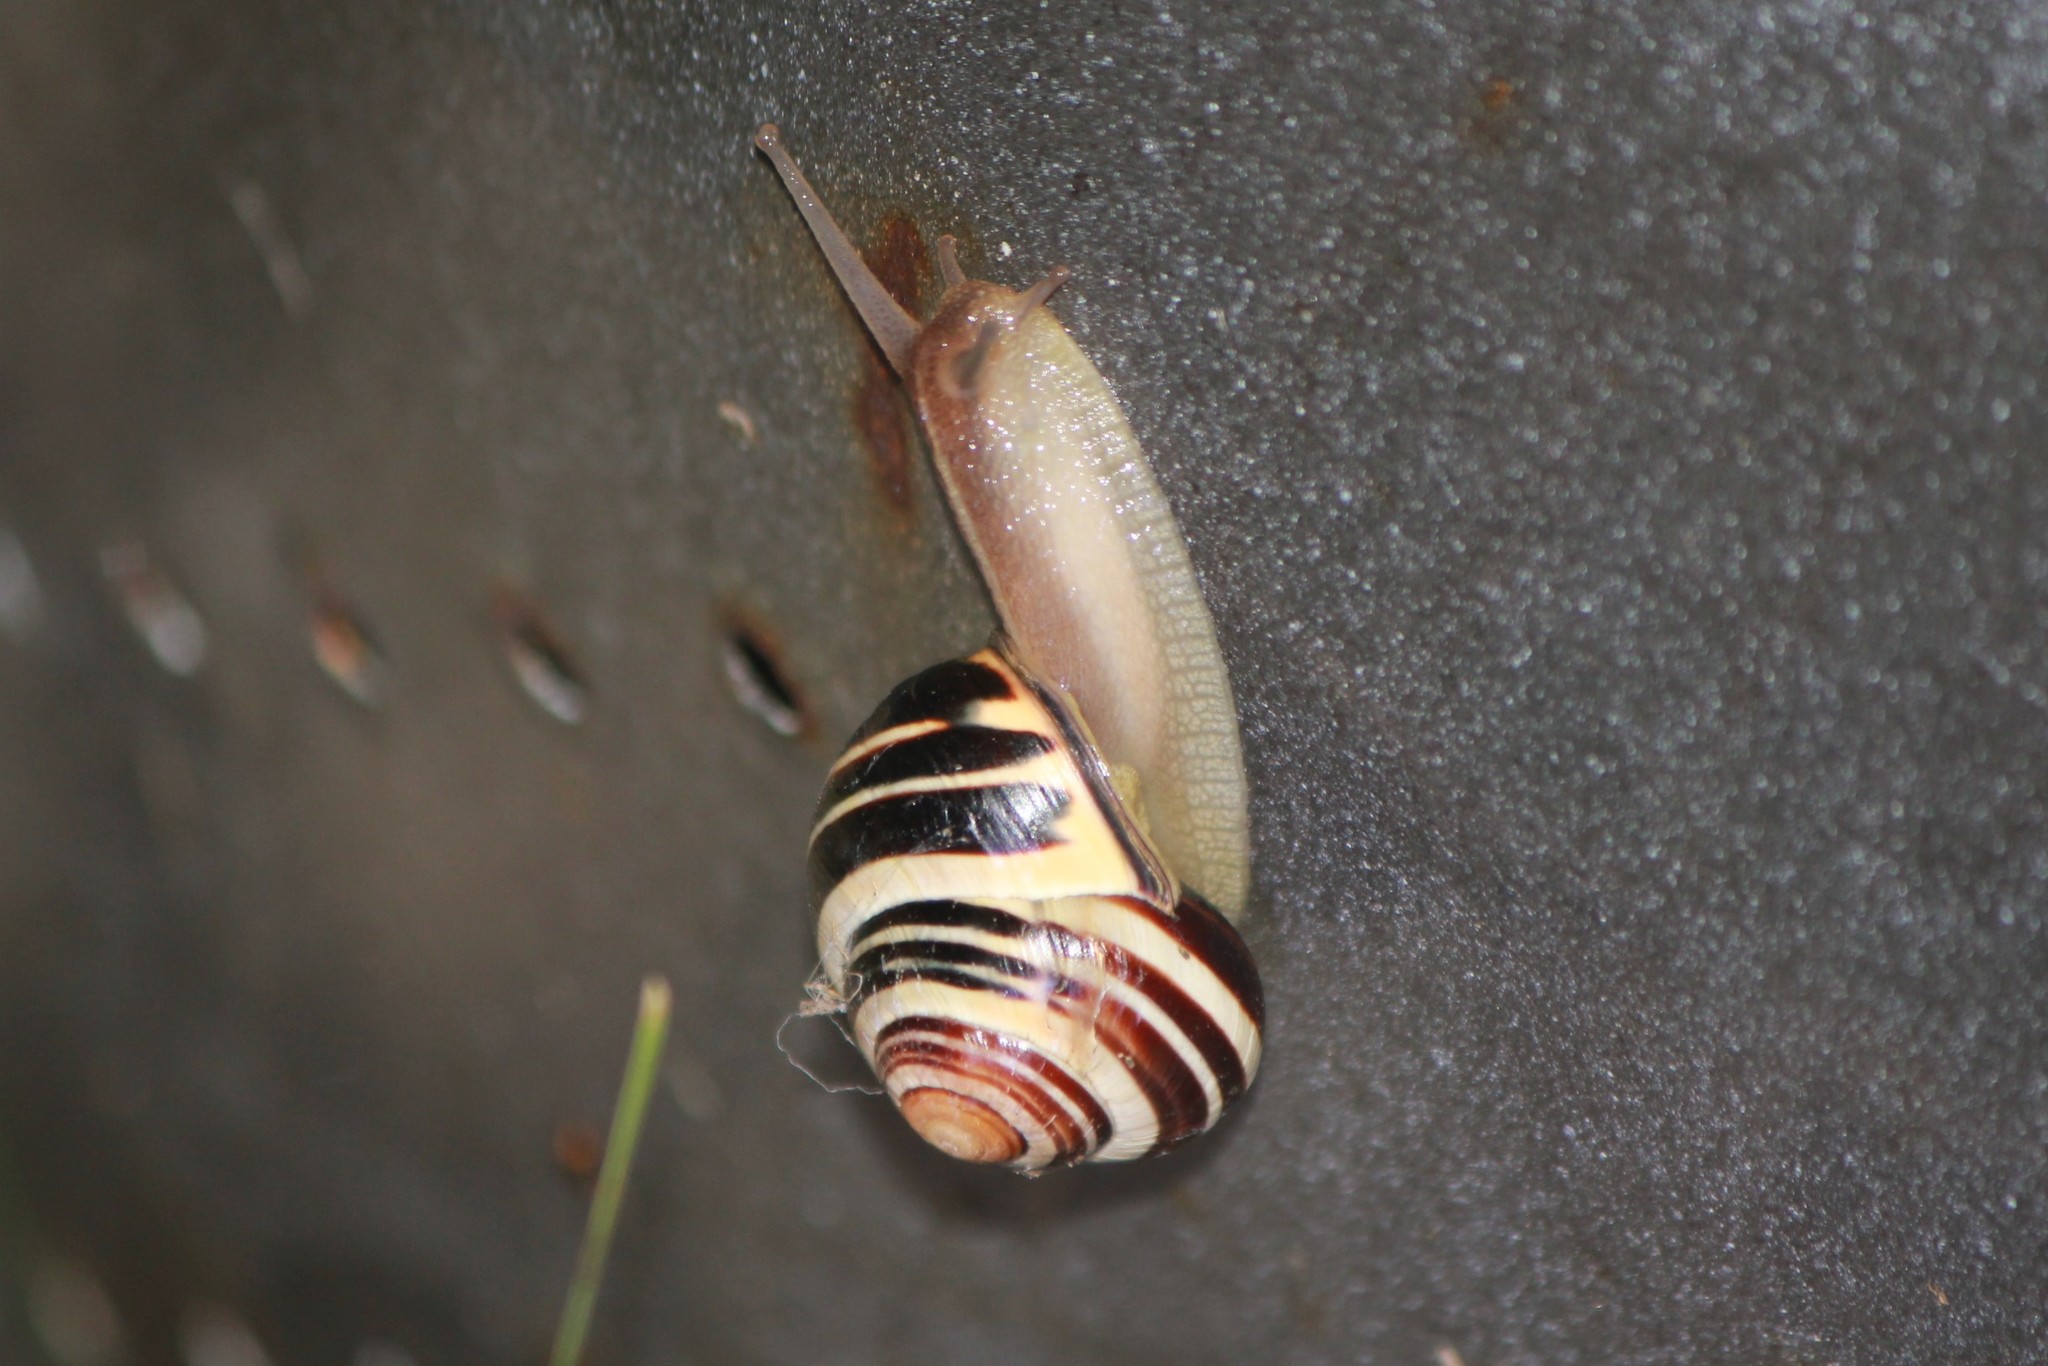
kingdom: Animalia
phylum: Mollusca
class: Gastropoda
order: Stylommatophora
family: Helicidae
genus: Cepaea
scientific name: Cepaea nemoralis
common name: Grovesnail
